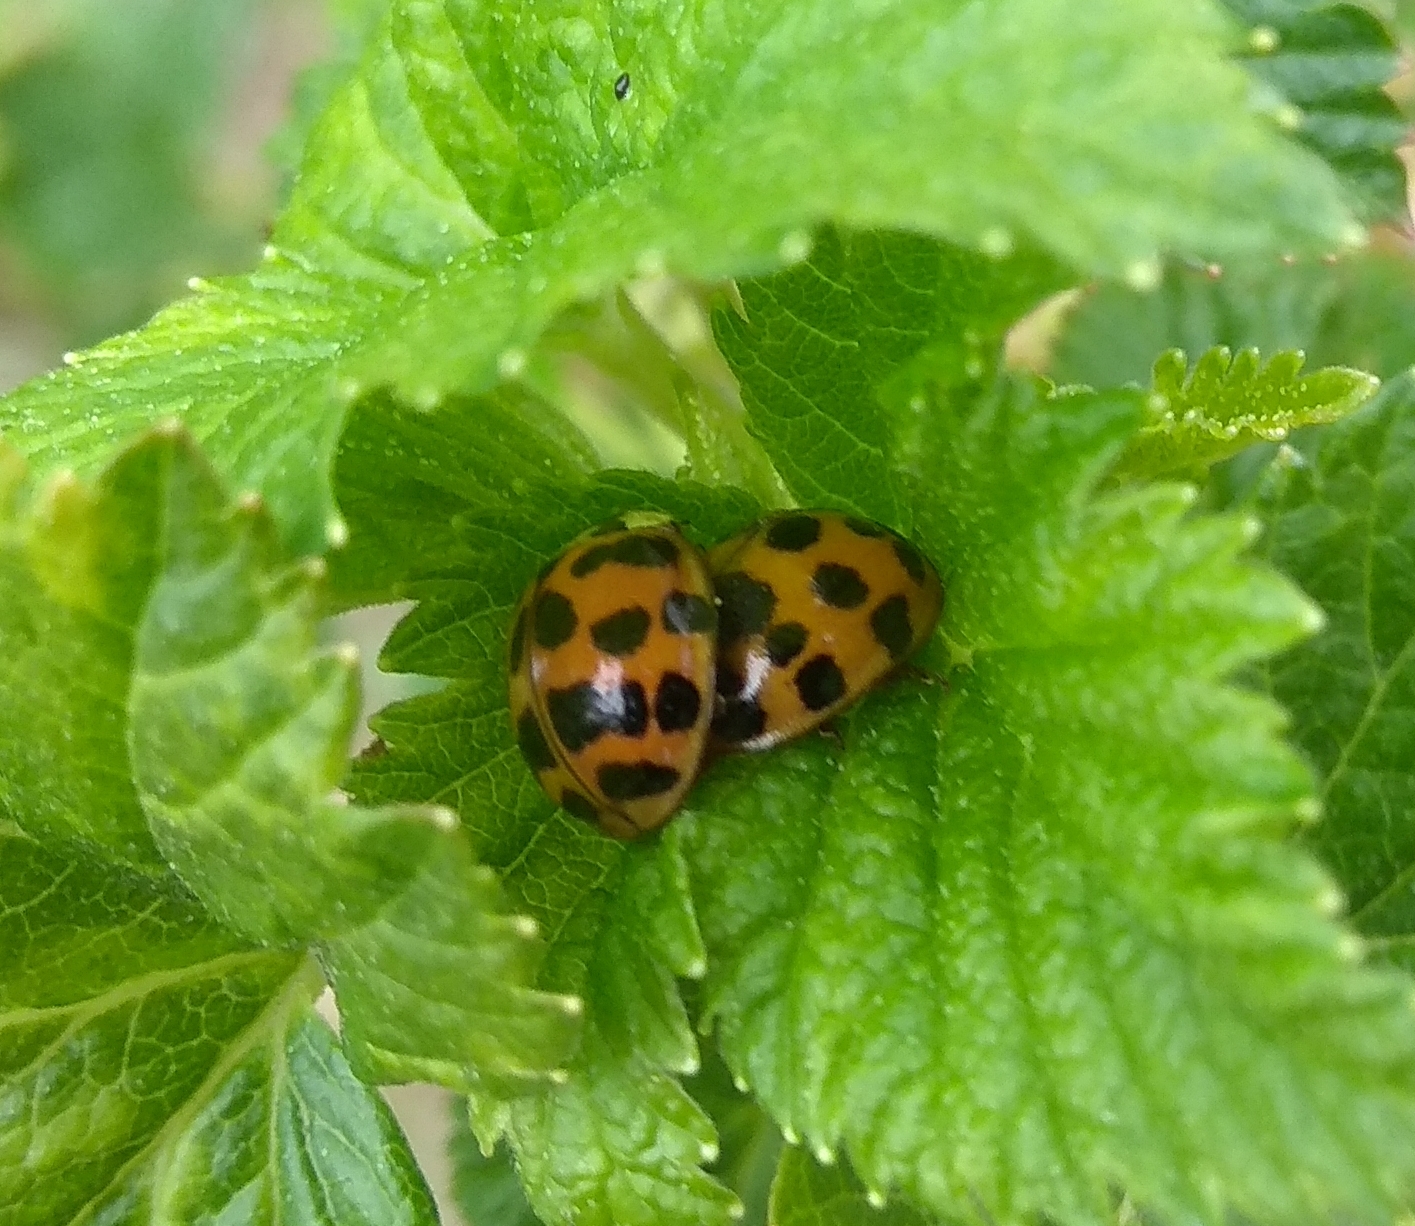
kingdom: Animalia
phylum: Arthropoda
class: Insecta
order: Coleoptera
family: Coccinellidae
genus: Harmonia
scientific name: Harmonia axyridis
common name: Harlequin ladybird
